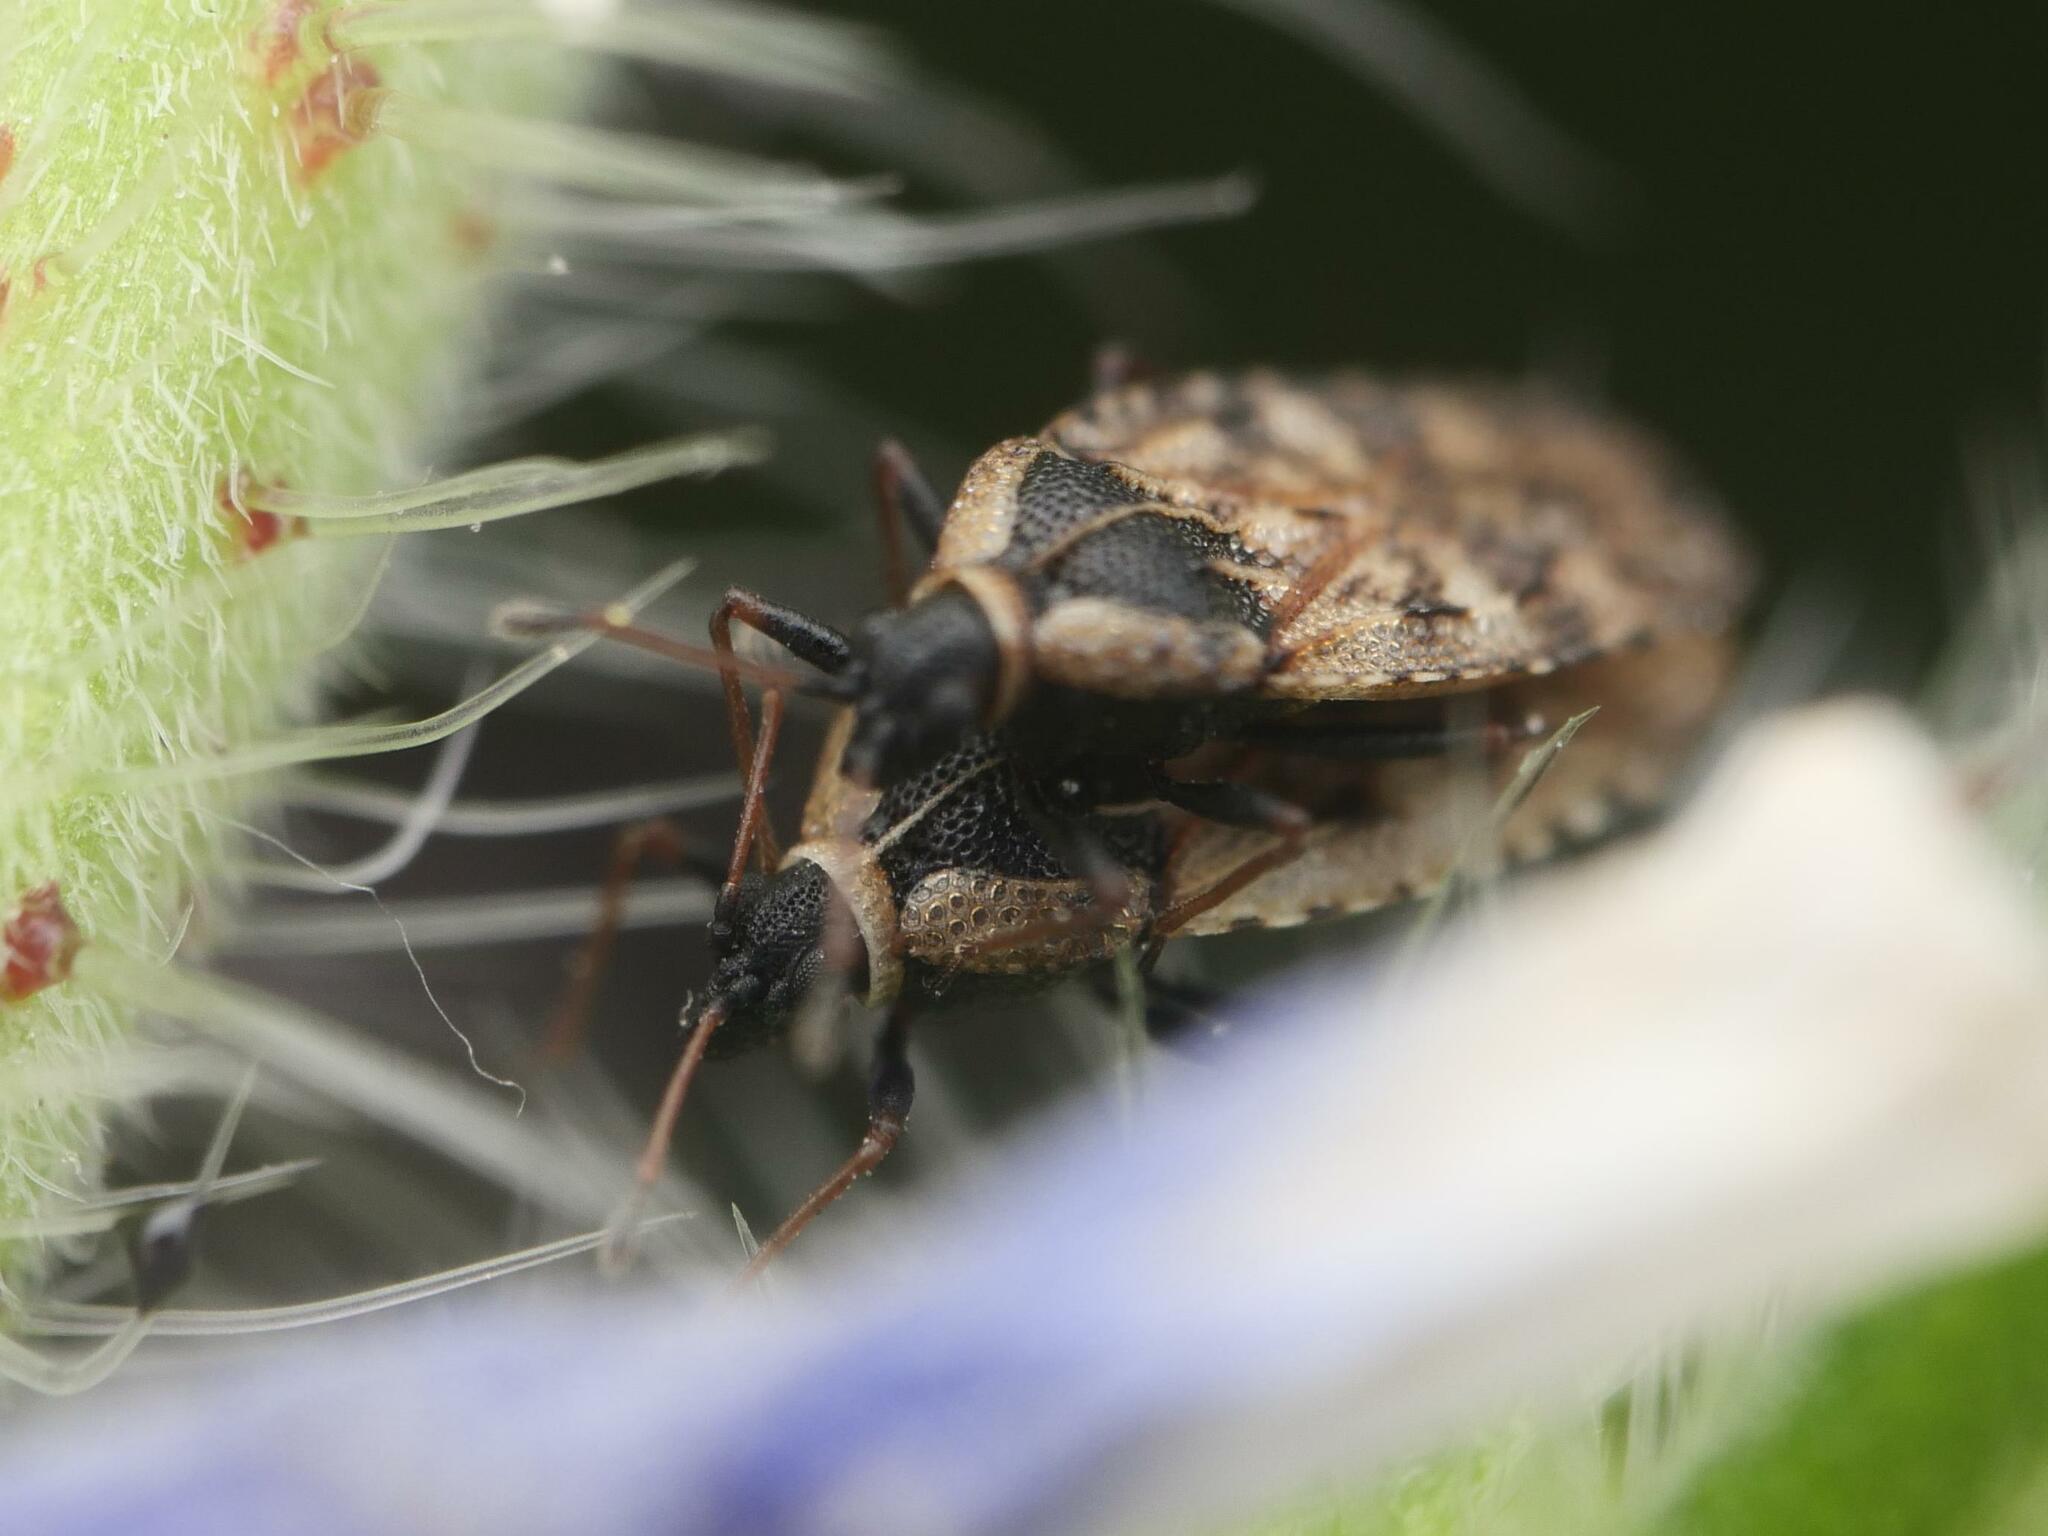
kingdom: Animalia
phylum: Arthropoda
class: Insecta
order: Hemiptera
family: Tingidae
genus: Dictyla
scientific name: Dictyla echii
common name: Lace bug
